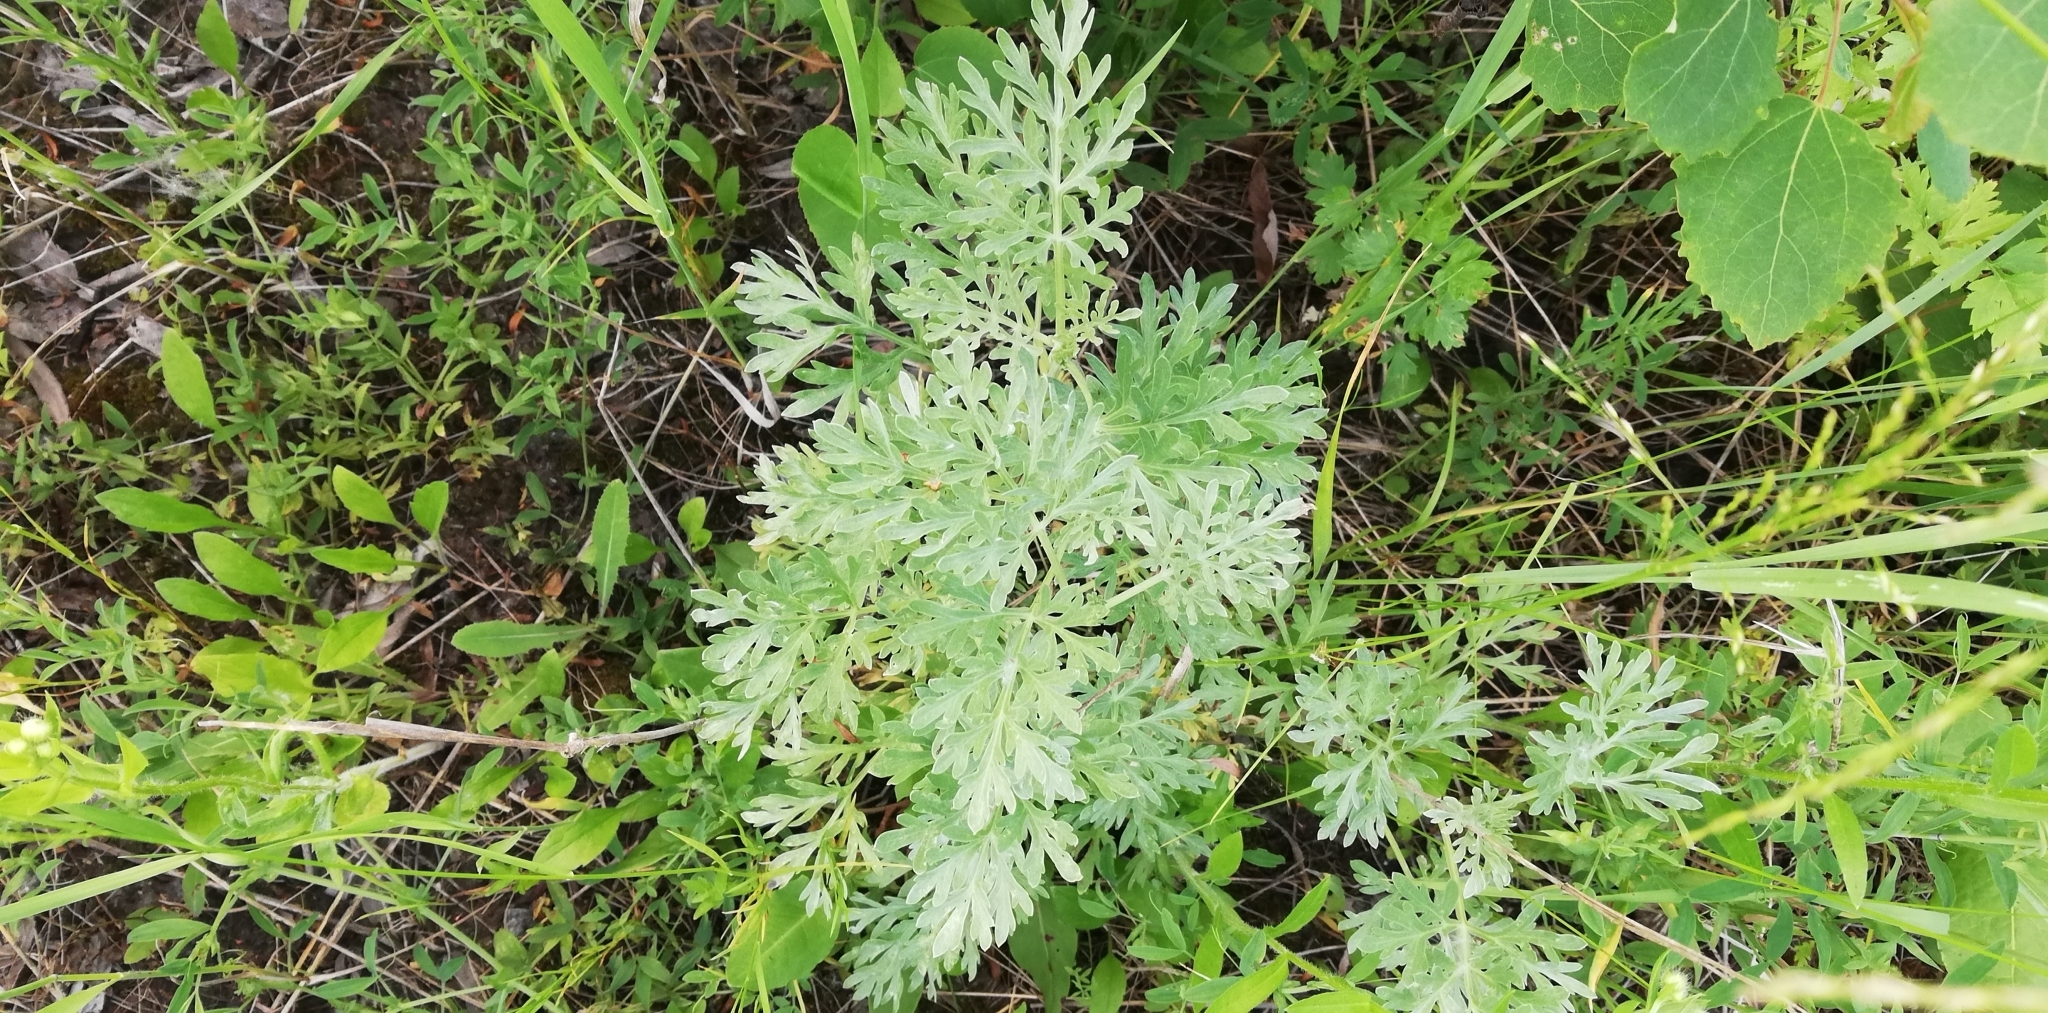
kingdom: Plantae
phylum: Tracheophyta
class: Magnoliopsida
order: Asterales
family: Asteraceae
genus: Artemisia
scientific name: Artemisia absinthium
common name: Wormwood
